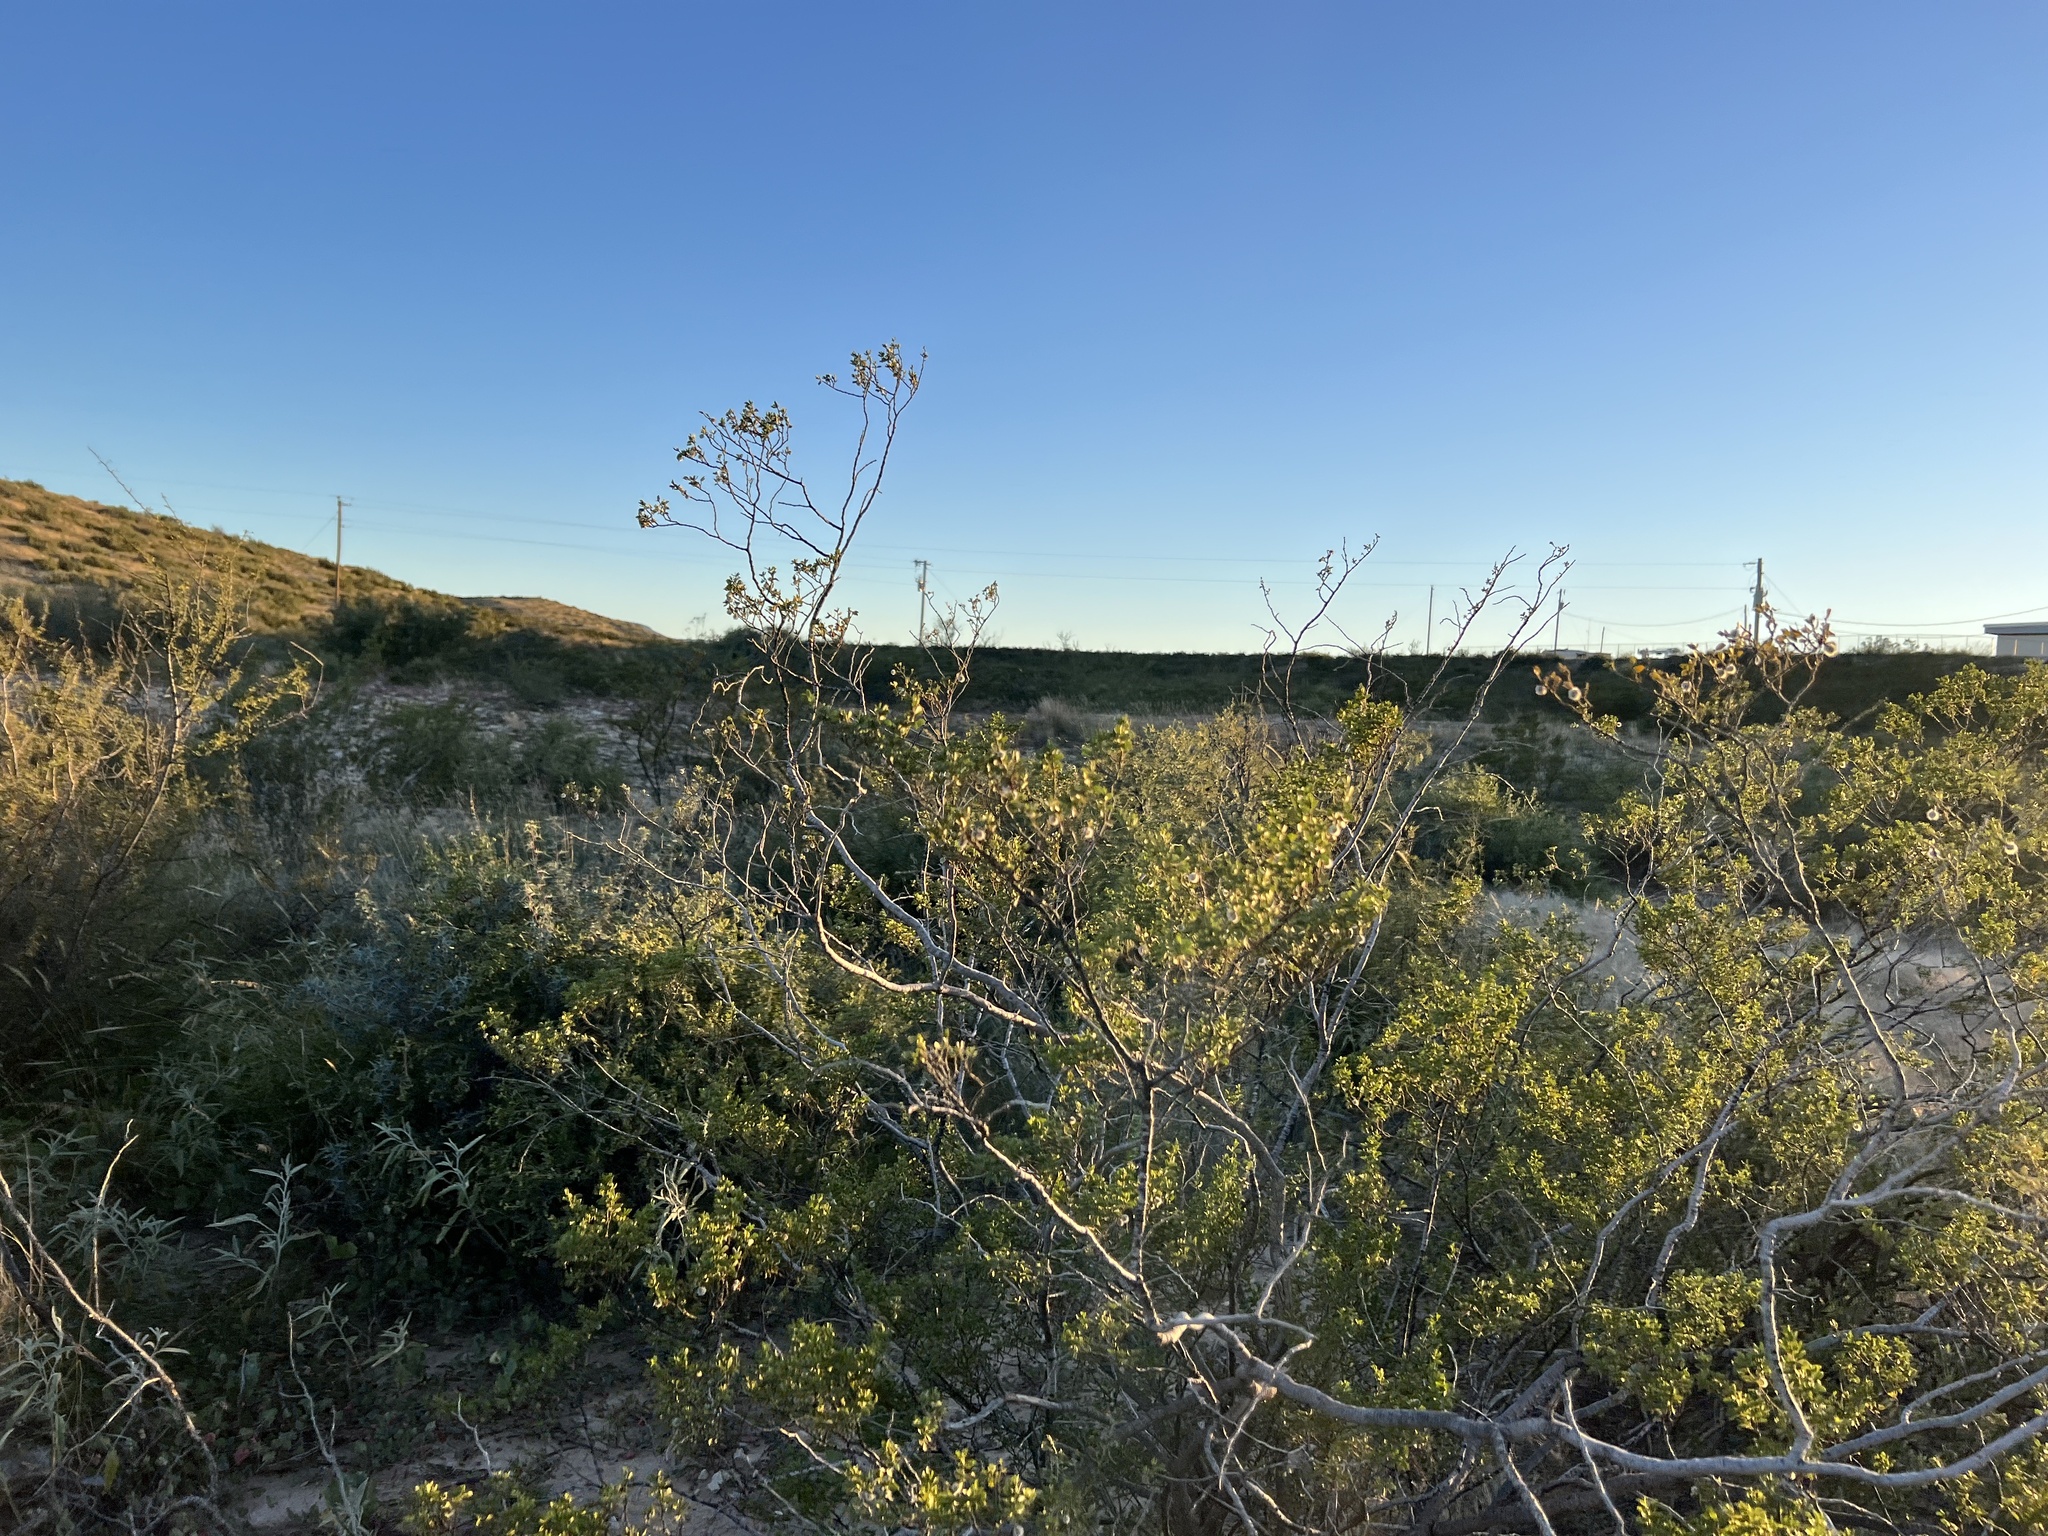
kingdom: Plantae
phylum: Tracheophyta
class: Magnoliopsida
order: Zygophyllales
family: Zygophyllaceae
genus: Larrea
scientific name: Larrea tridentata
